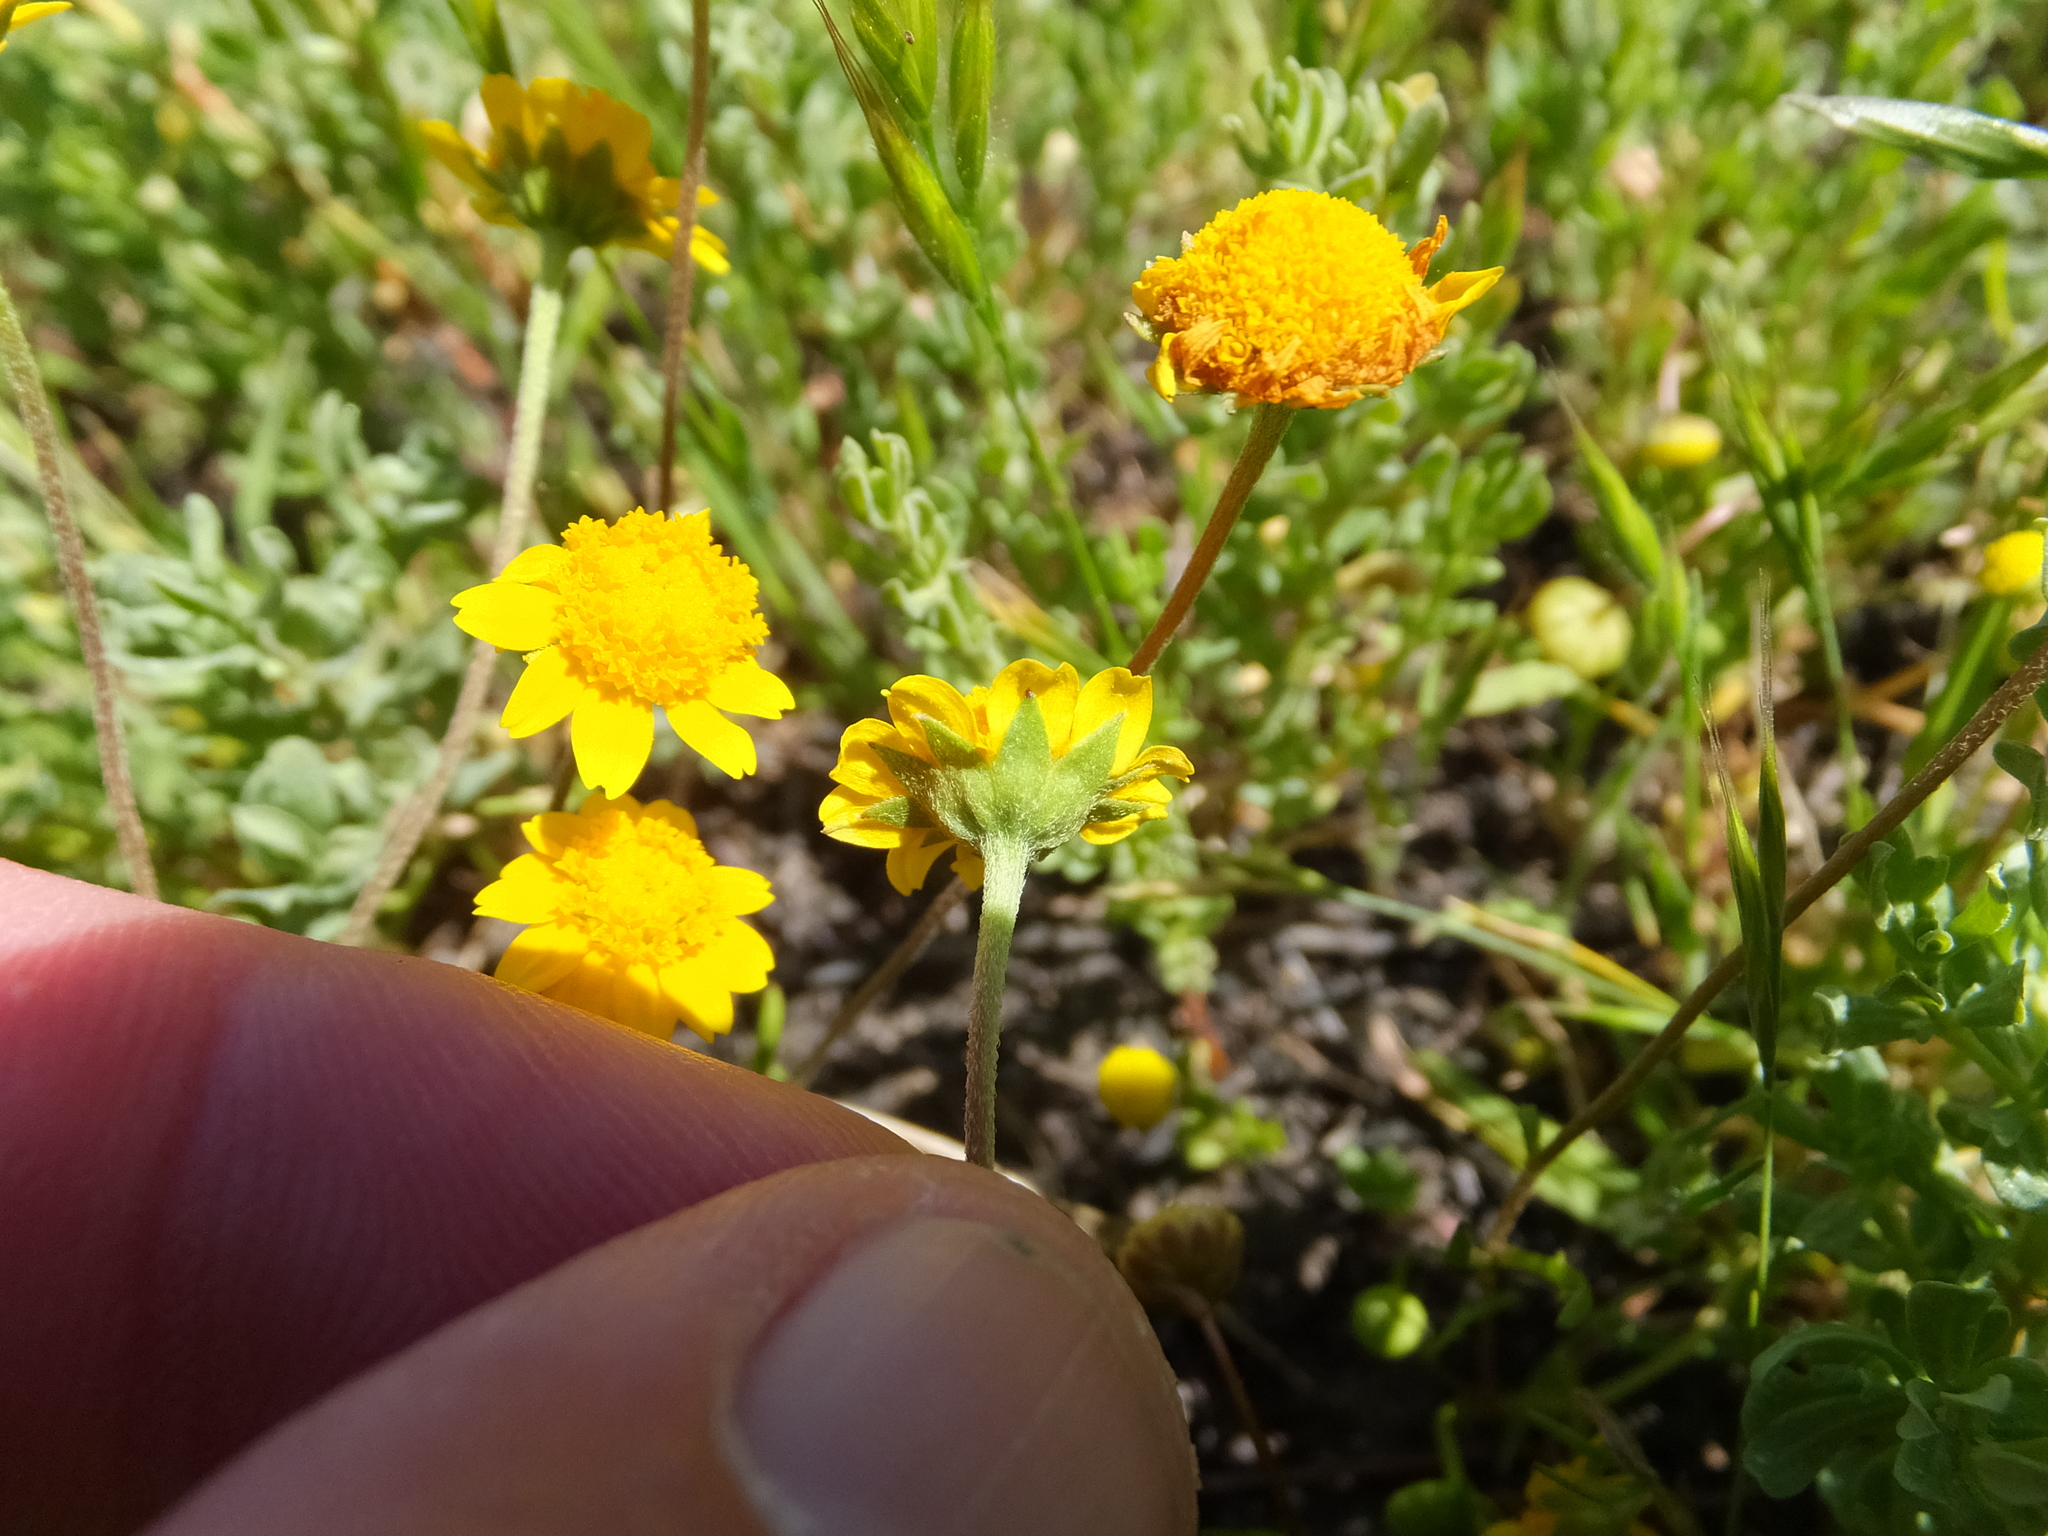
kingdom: Plantae
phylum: Tracheophyta
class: Magnoliopsida
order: Asterales
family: Asteraceae
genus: Lasthenia
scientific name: Lasthenia conjugens
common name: Contra costa goldfields
